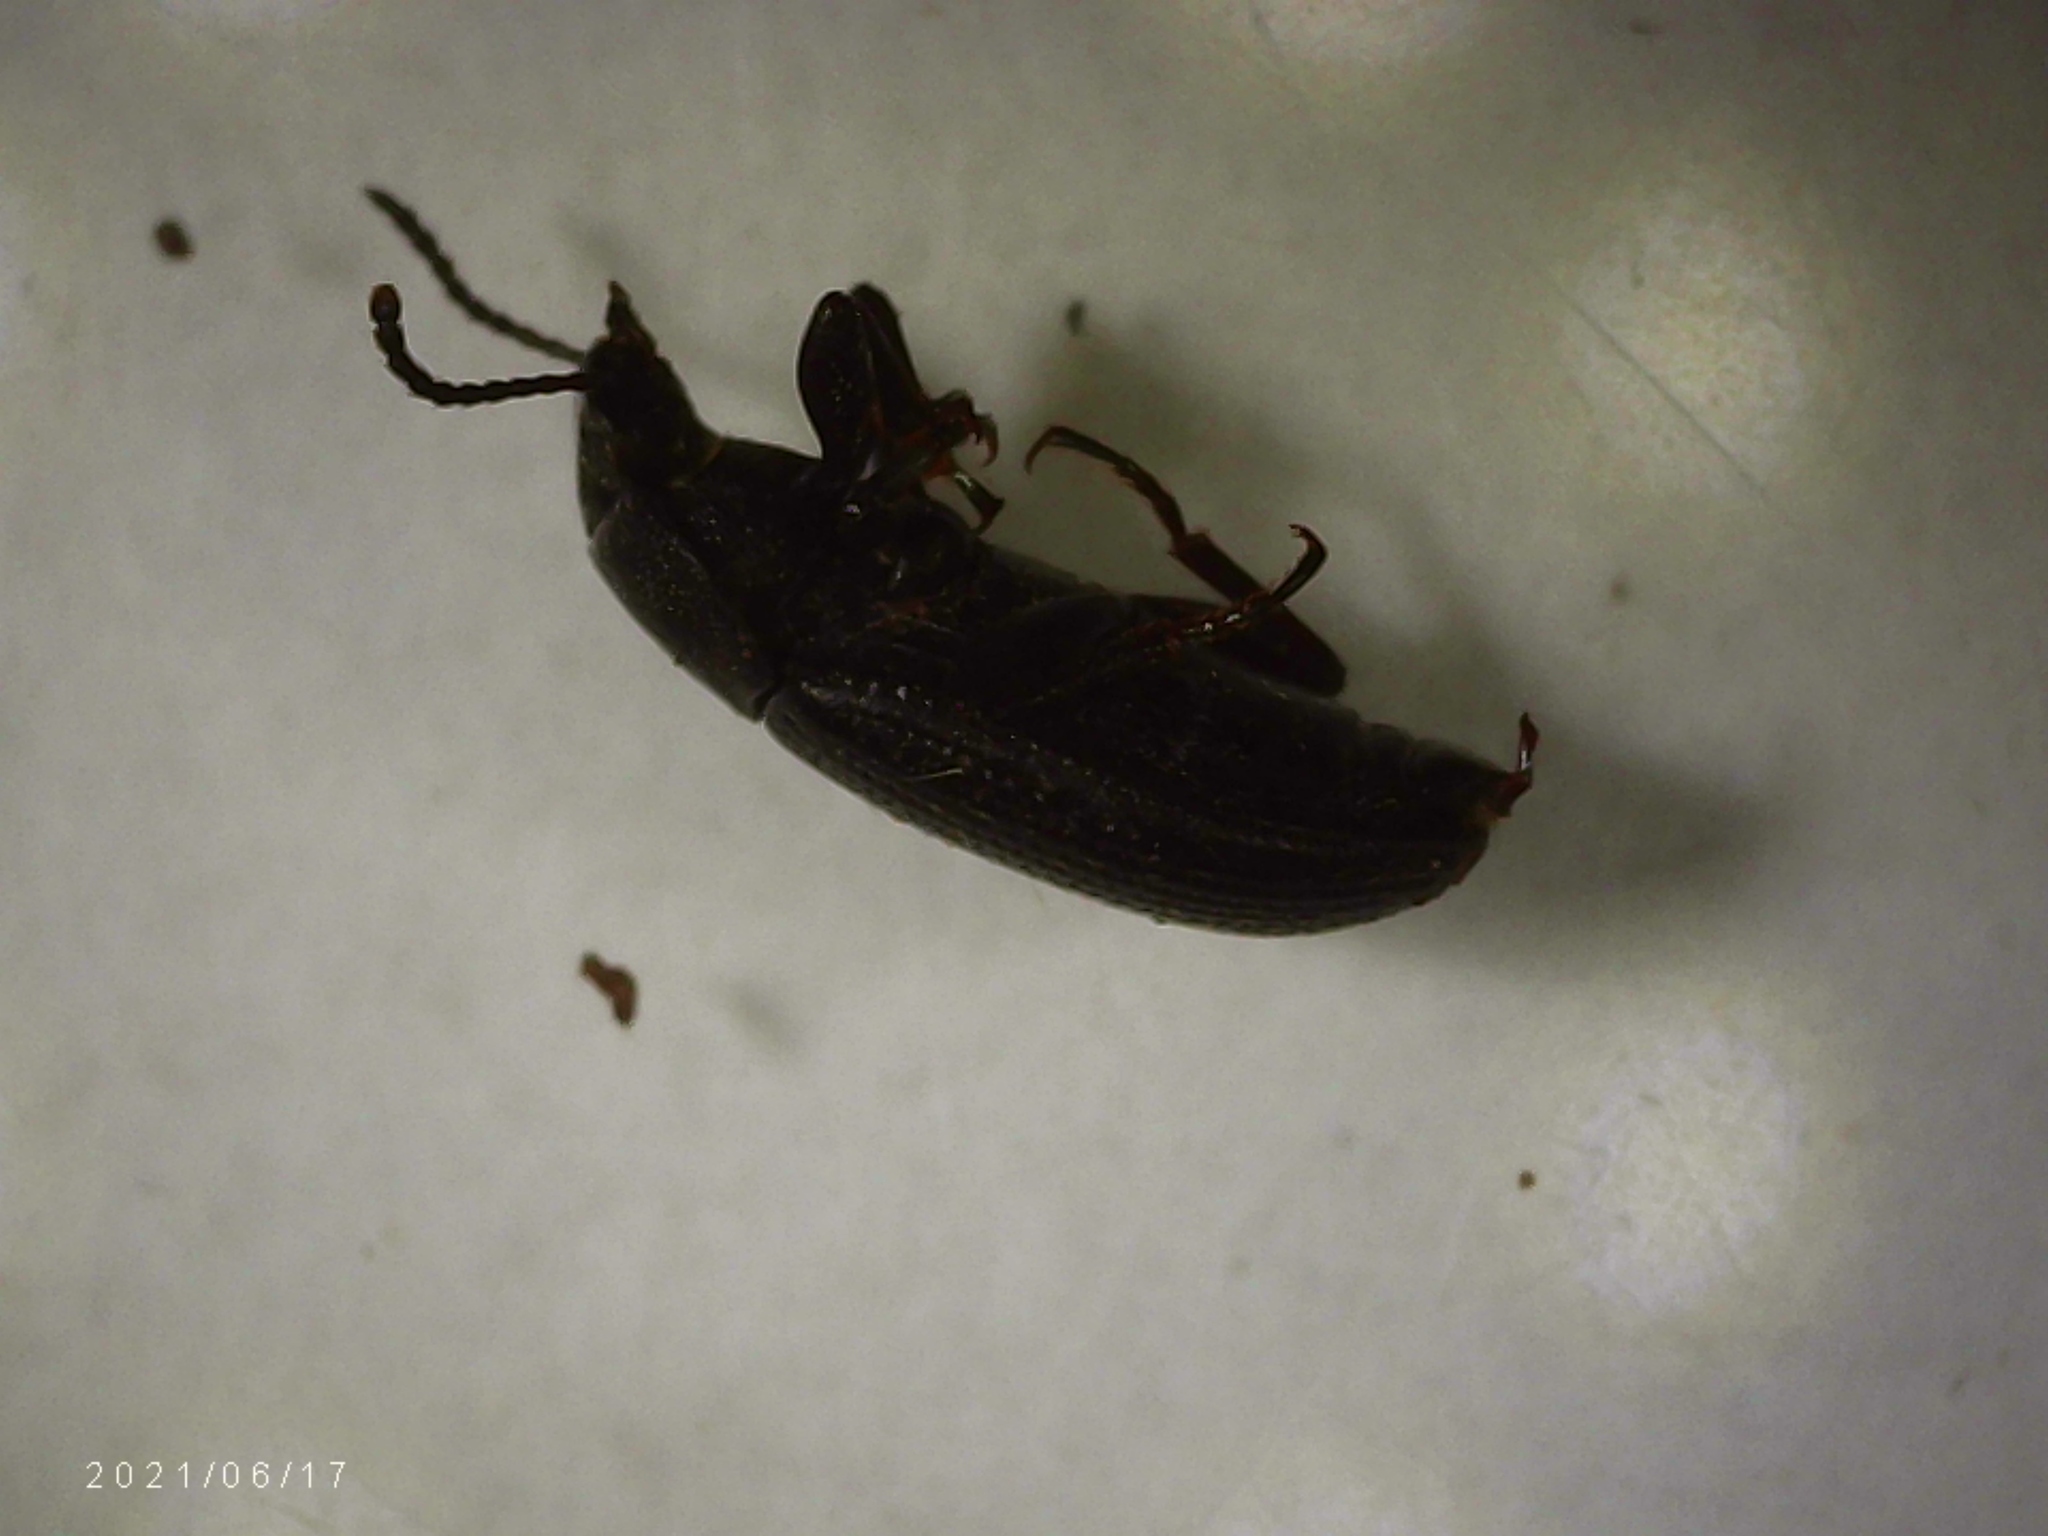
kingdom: Animalia
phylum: Arthropoda
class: Insecta
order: Coleoptera
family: Tenebrionidae
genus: Blapstinus
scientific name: Blapstinus
